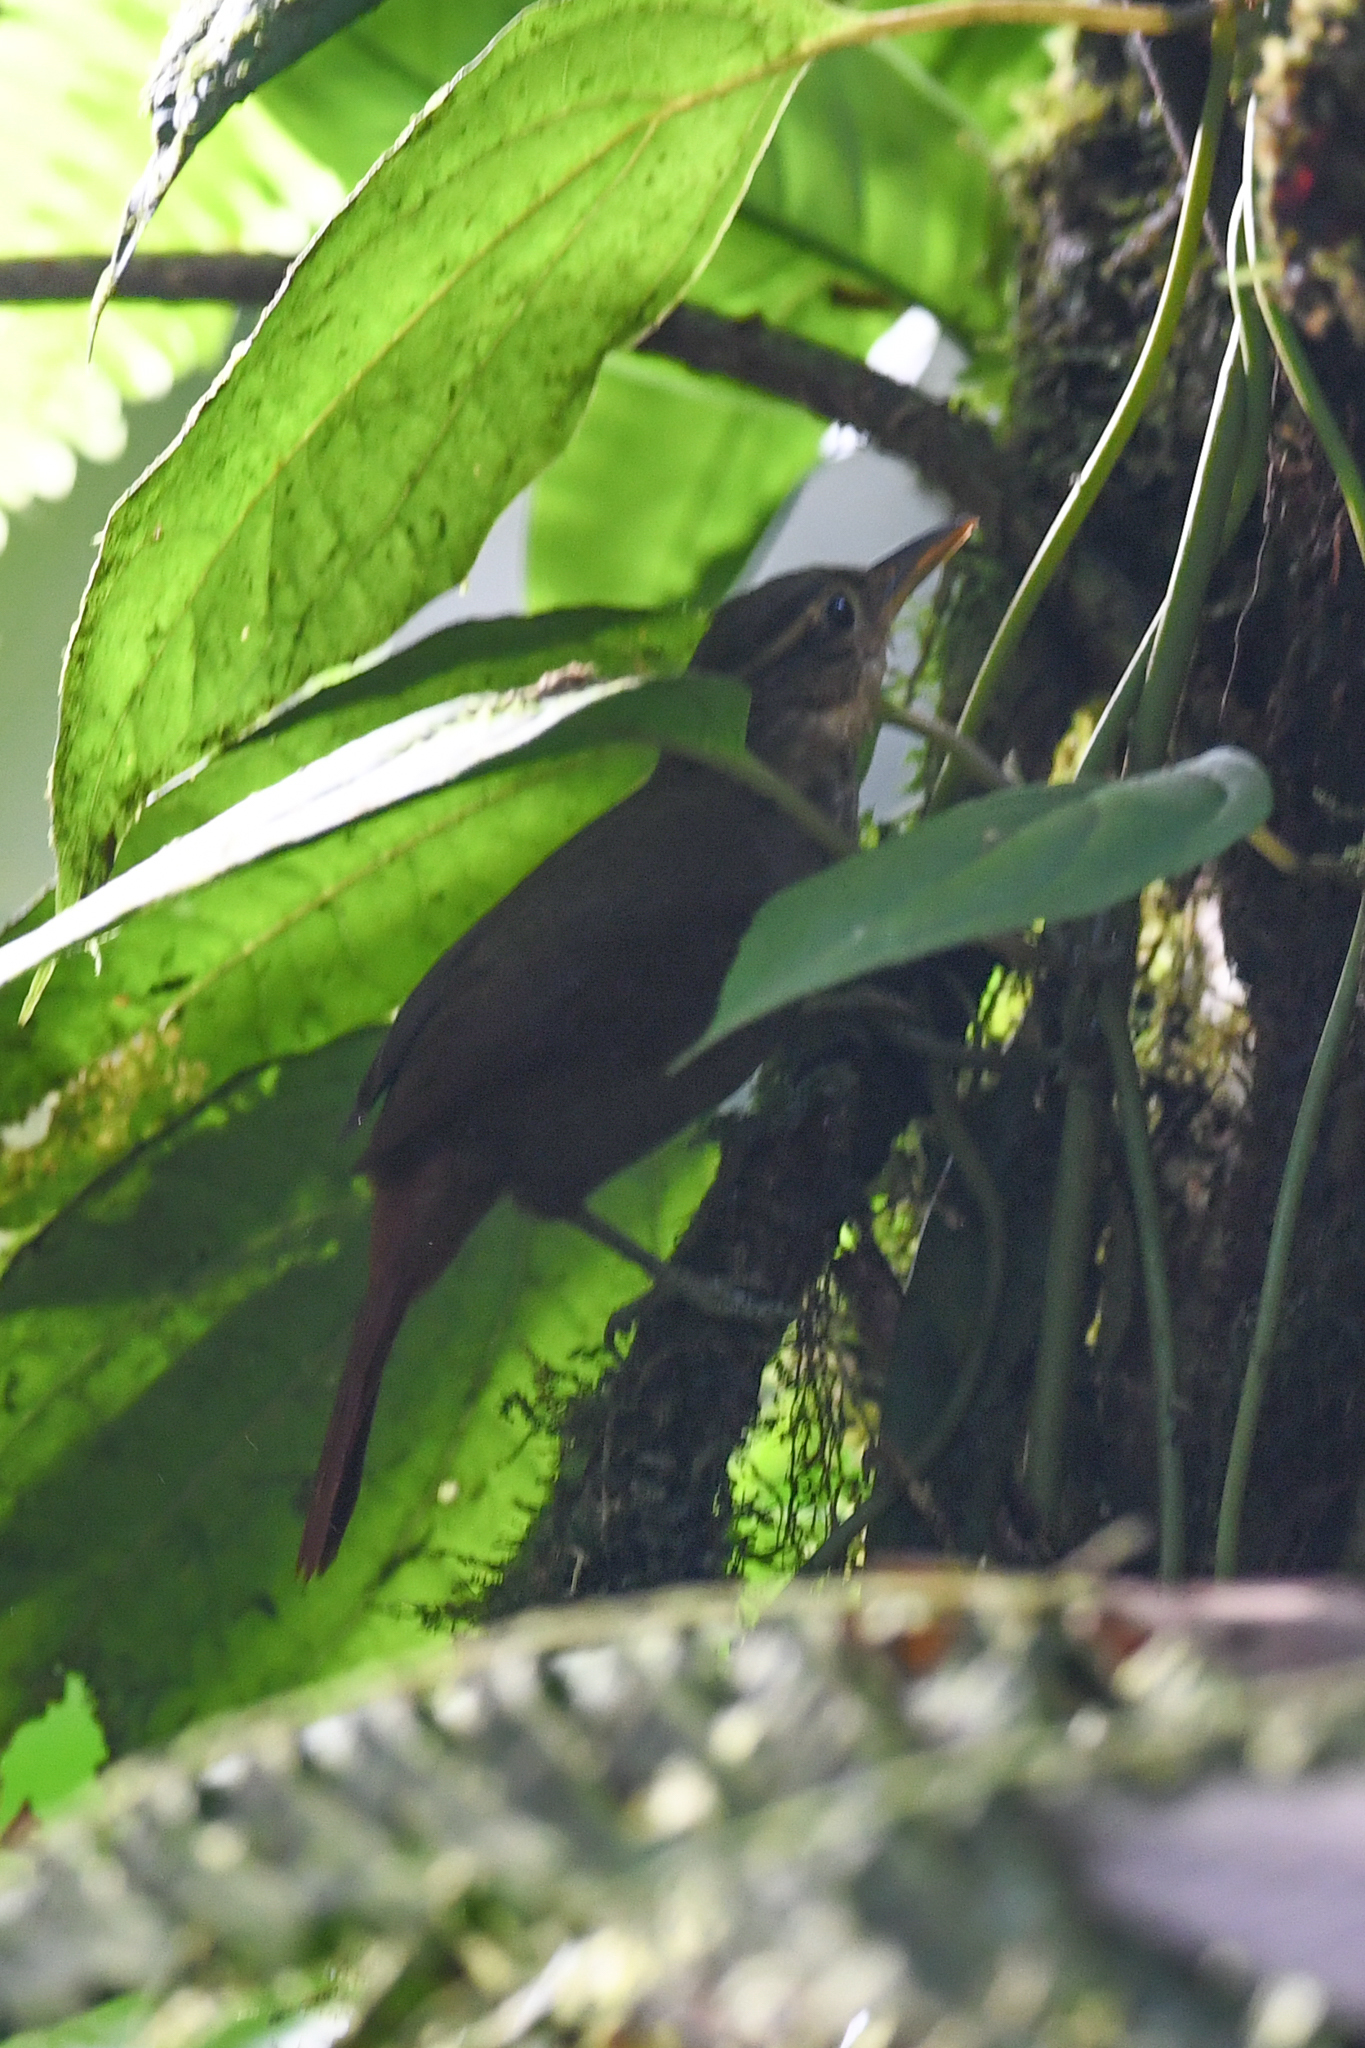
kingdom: Animalia
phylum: Chordata
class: Aves
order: Passeriformes
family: Furnariidae
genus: Automolus
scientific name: Automolus ochrolaemus
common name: Buff-throated foliage-gleaner
